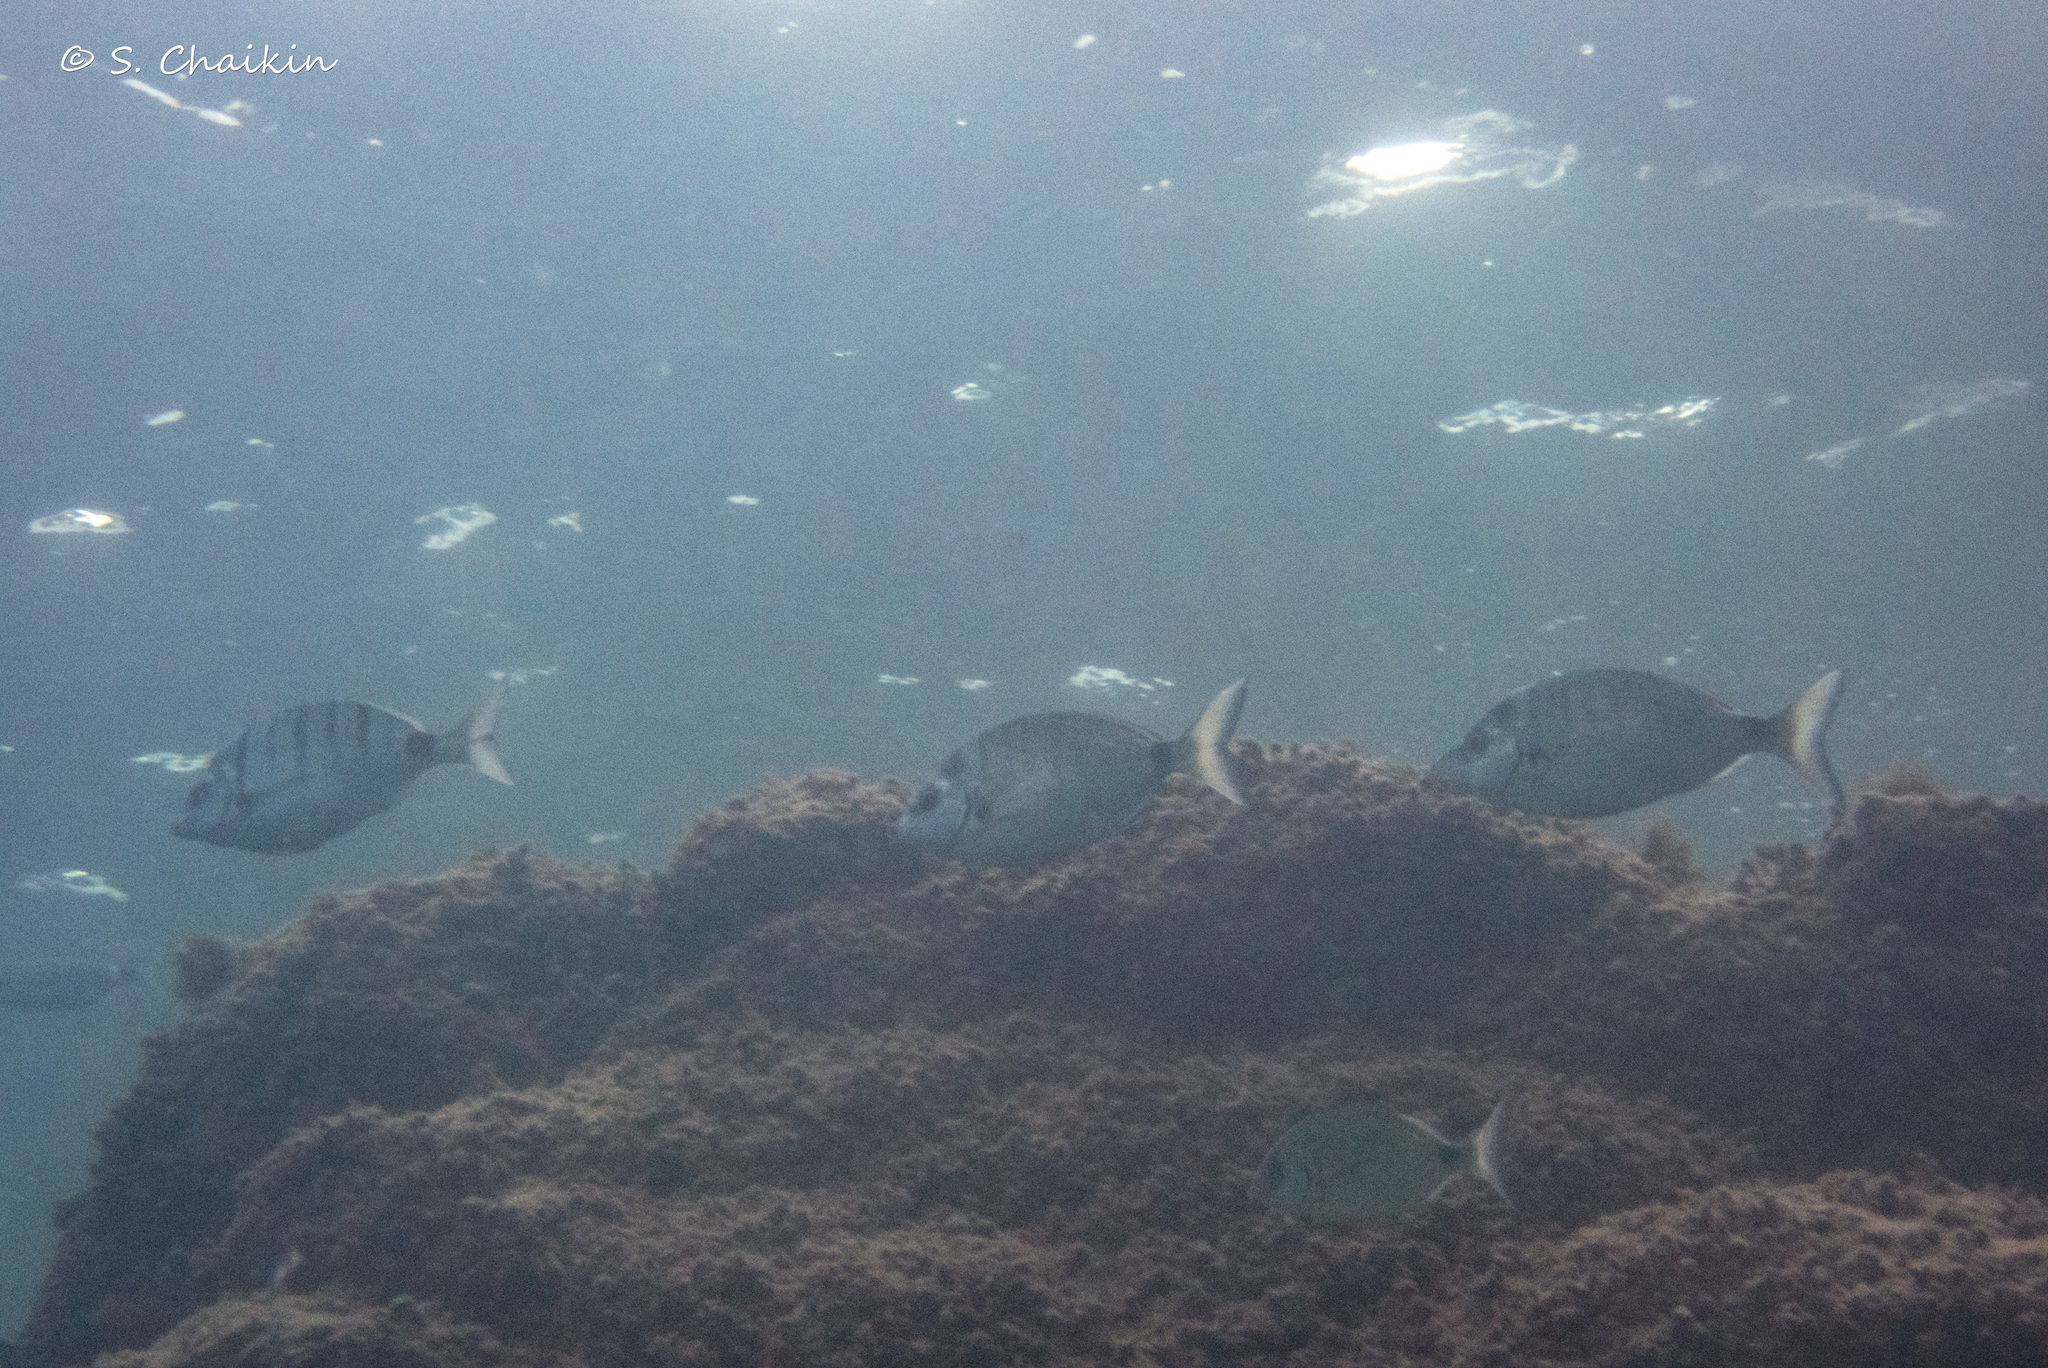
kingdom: Animalia
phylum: Chordata
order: Perciformes
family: Sparidae
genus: Diplodus
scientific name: Diplodus puntazzo
